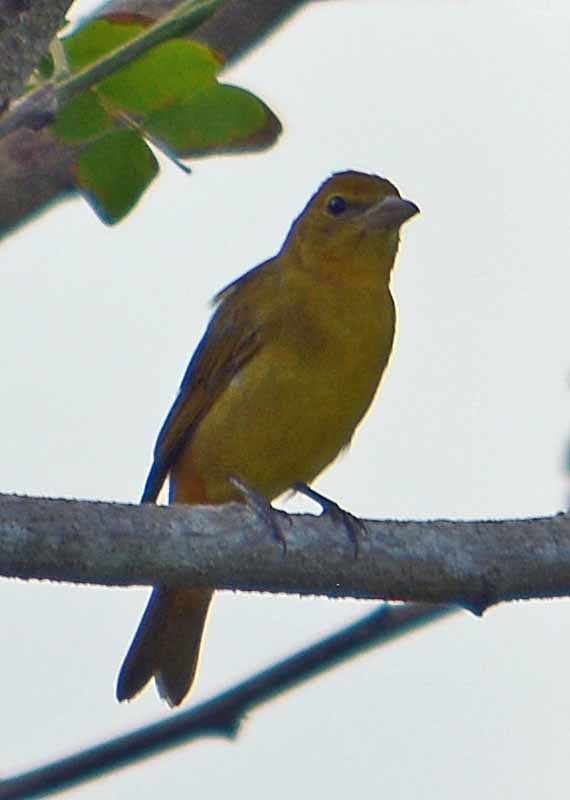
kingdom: Animalia
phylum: Chordata
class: Aves
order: Passeriformes
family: Cardinalidae
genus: Piranga
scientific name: Piranga rubra
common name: Summer tanager
